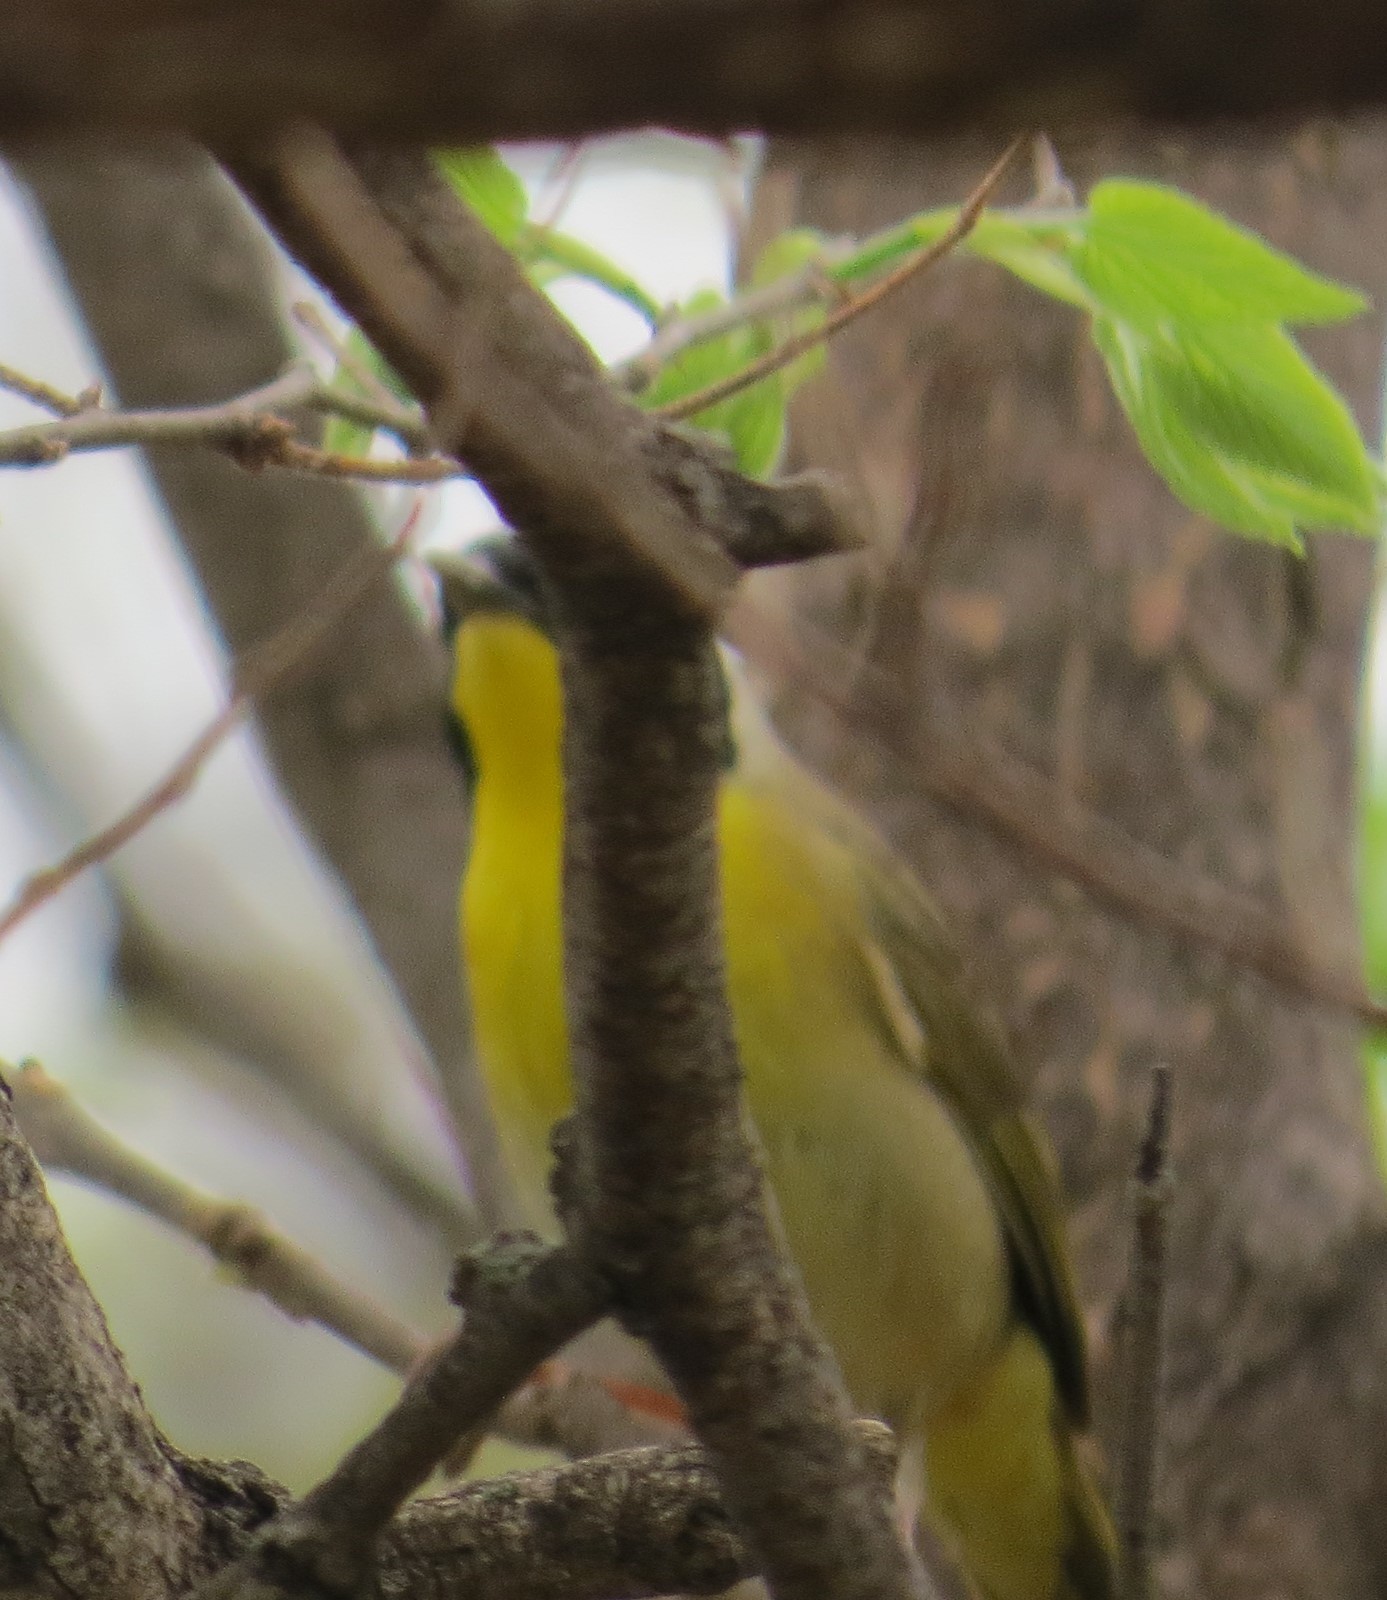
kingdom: Animalia
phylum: Chordata
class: Aves
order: Passeriformes
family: Parulidae
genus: Geothlypis
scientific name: Geothlypis trichas
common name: Common yellowthroat
